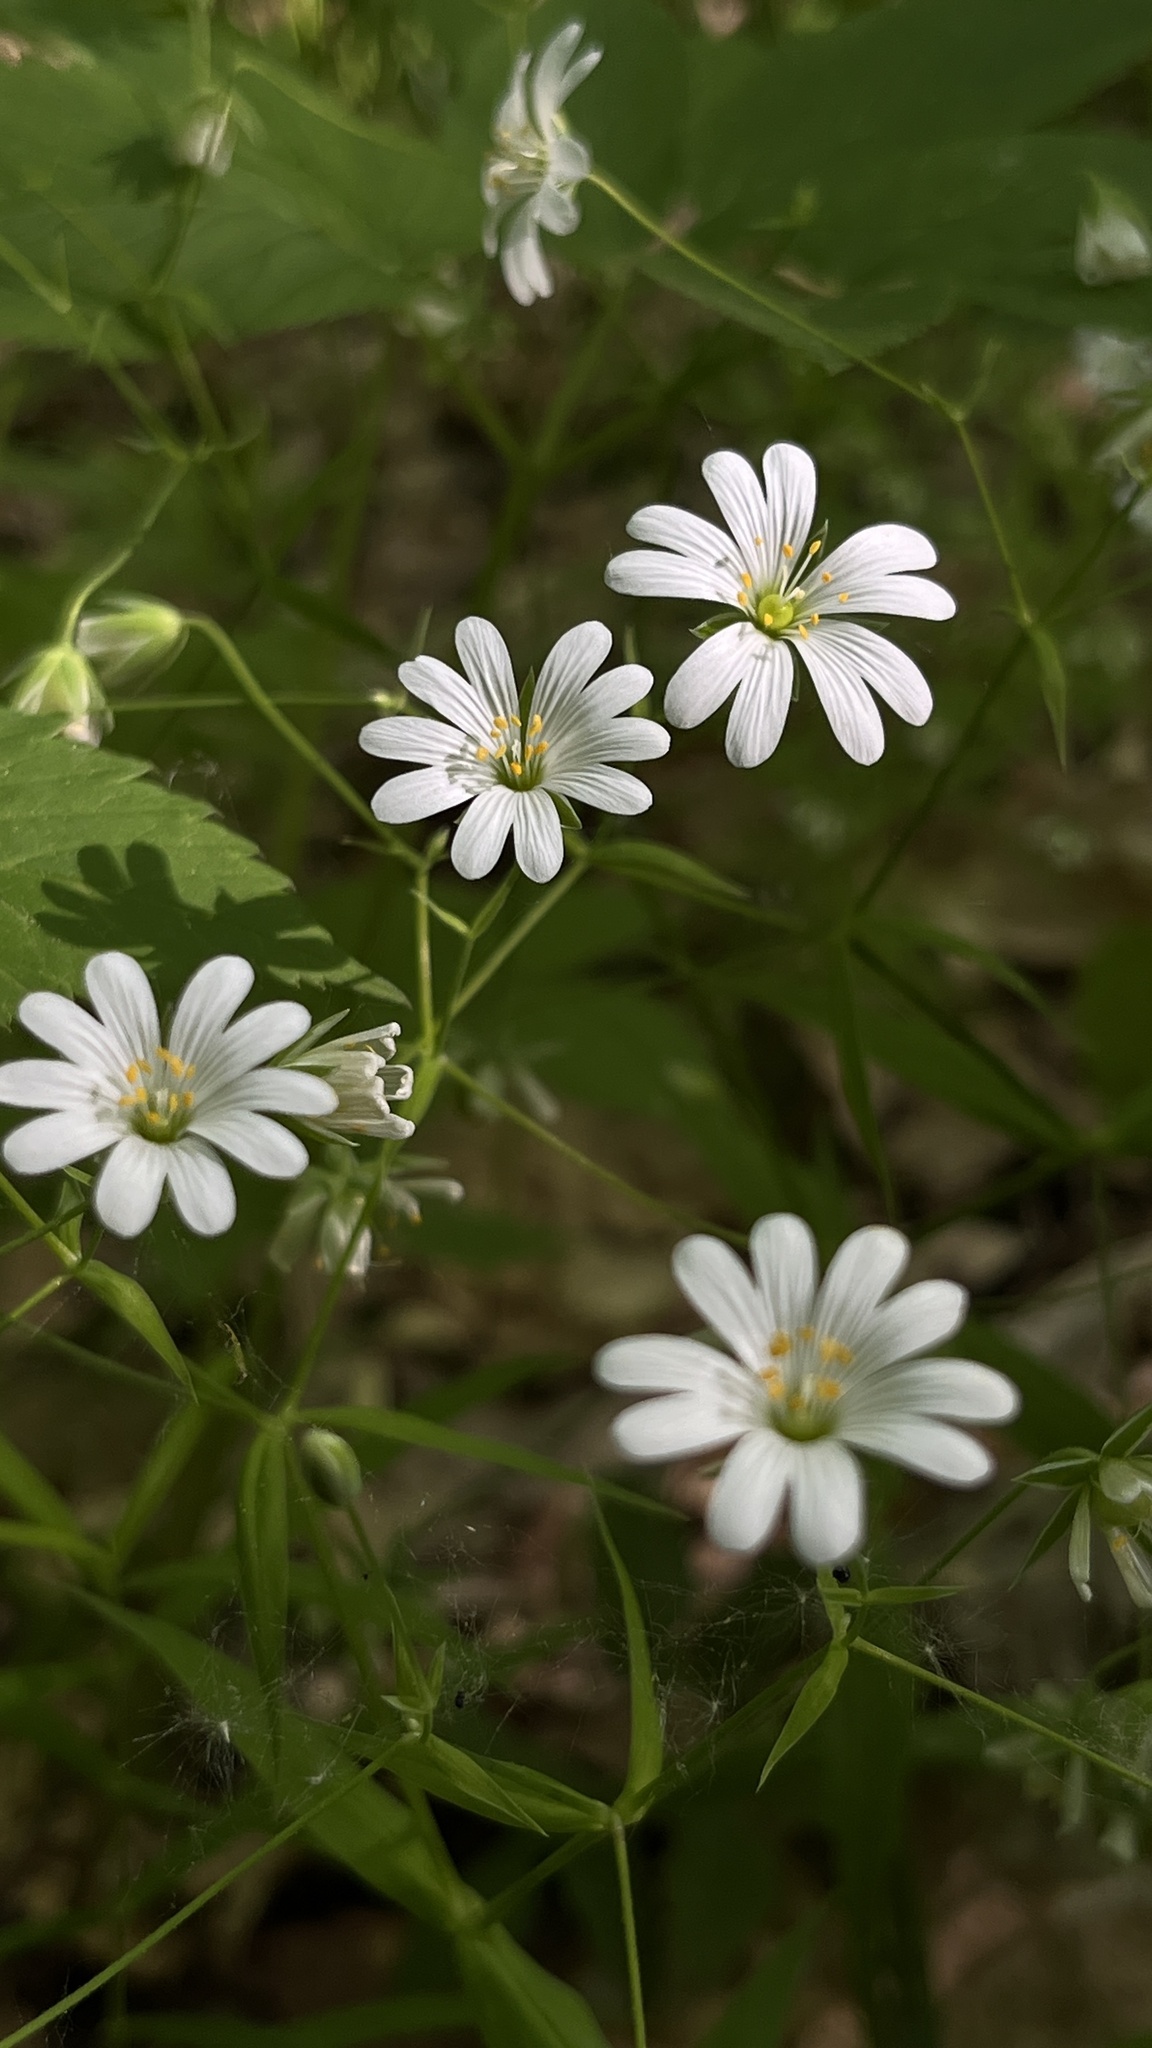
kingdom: Plantae
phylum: Tracheophyta
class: Magnoliopsida
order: Caryophyllales
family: Caryophyllaceae
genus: Rabelera
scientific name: Rabelera holostea
